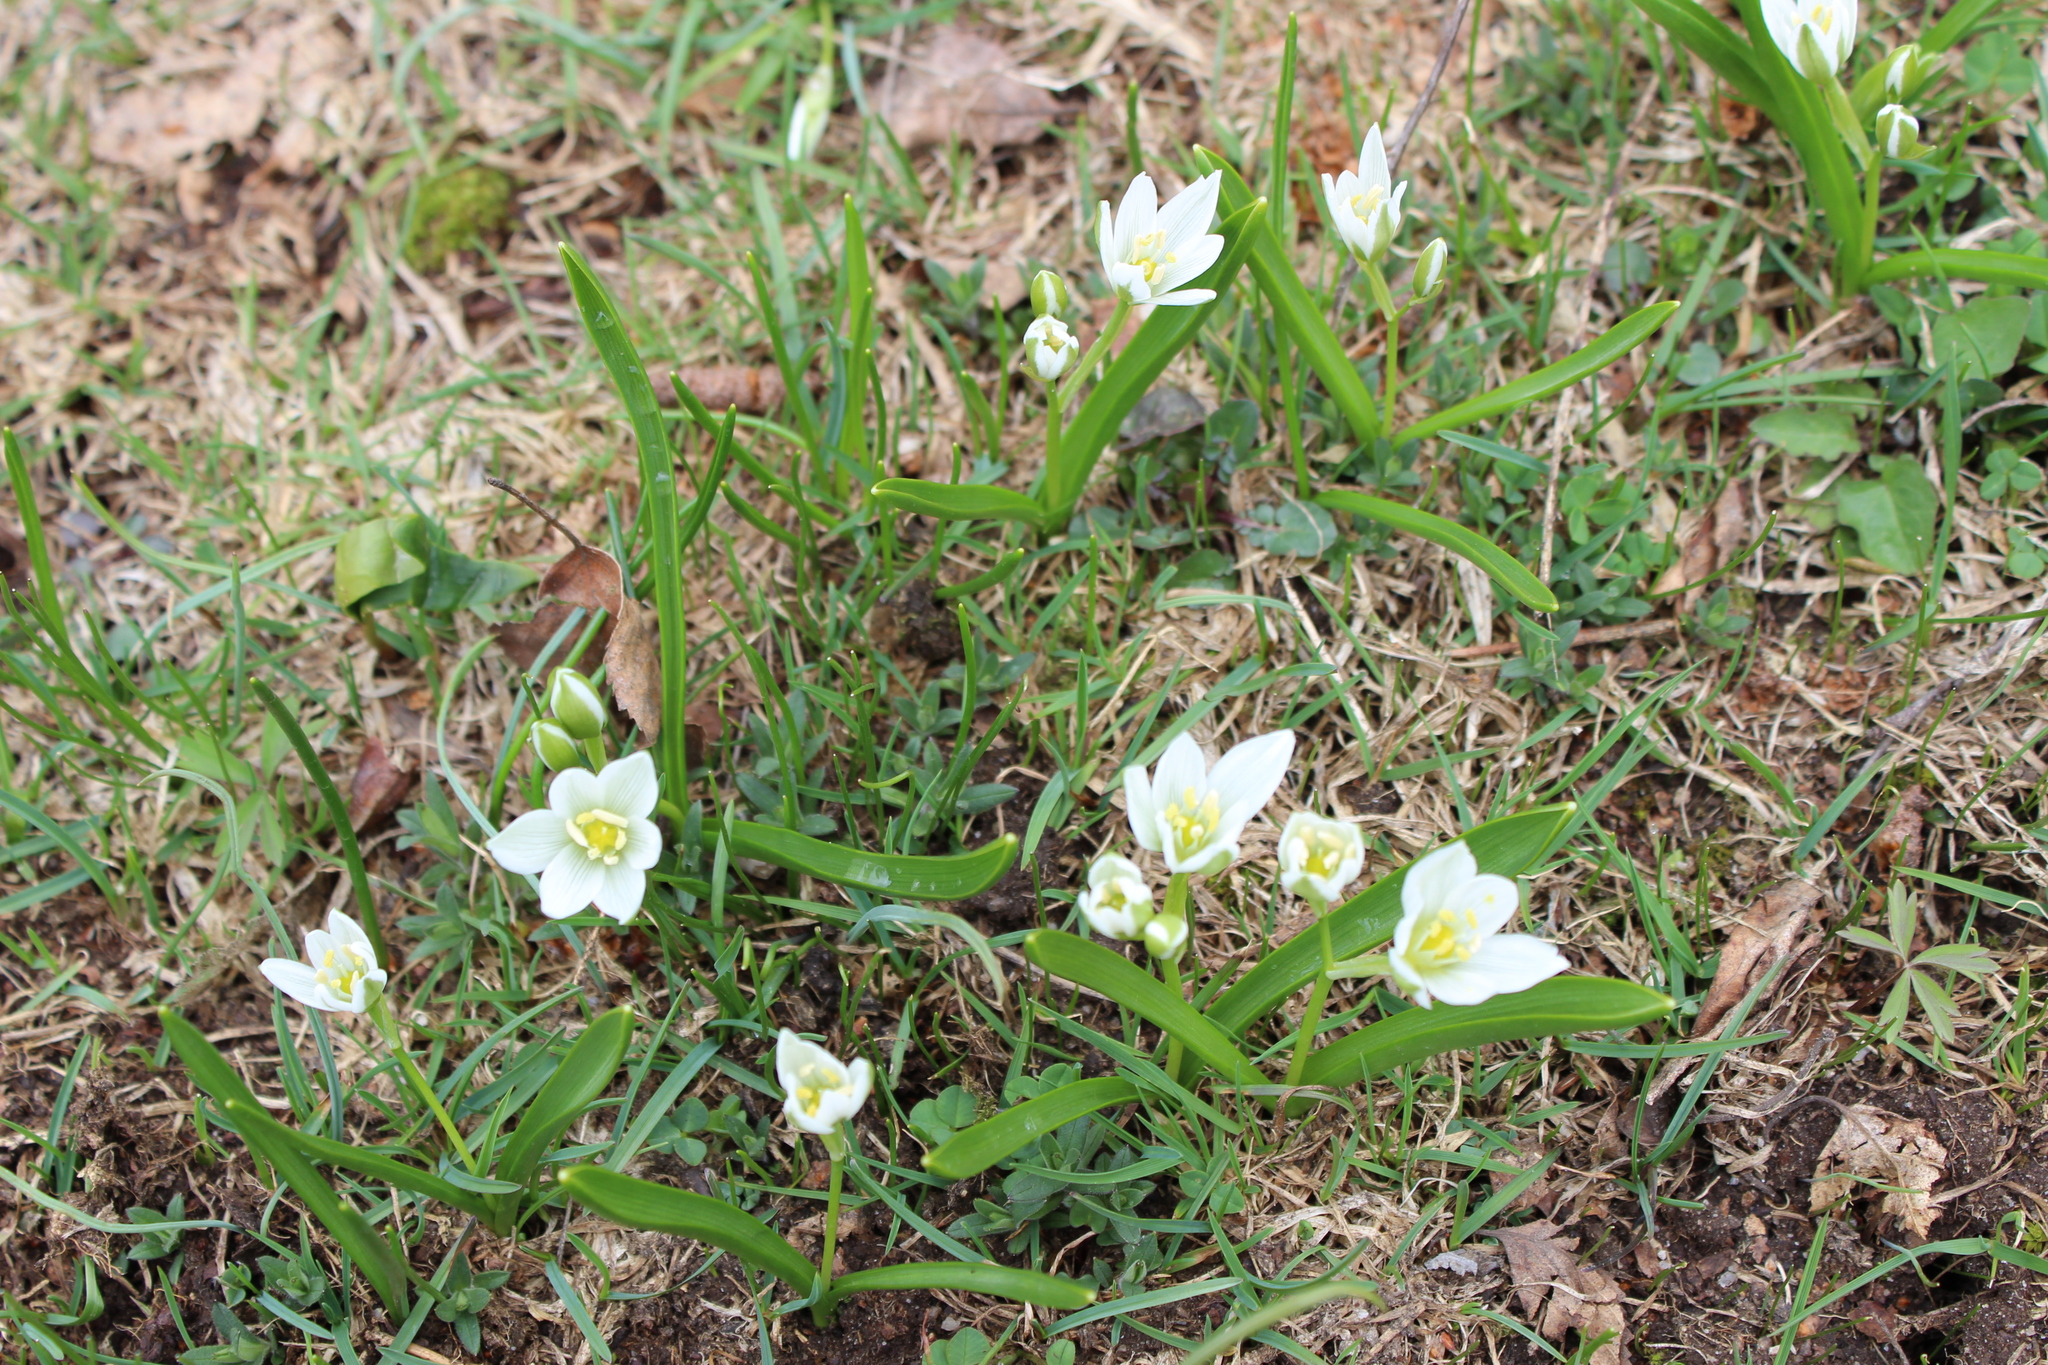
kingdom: Plantae
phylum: Tracheophyta
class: Liliopsida
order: Asparagales
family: Asparagaceae
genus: Ornithogalum
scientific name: Ornithogalum balansae
